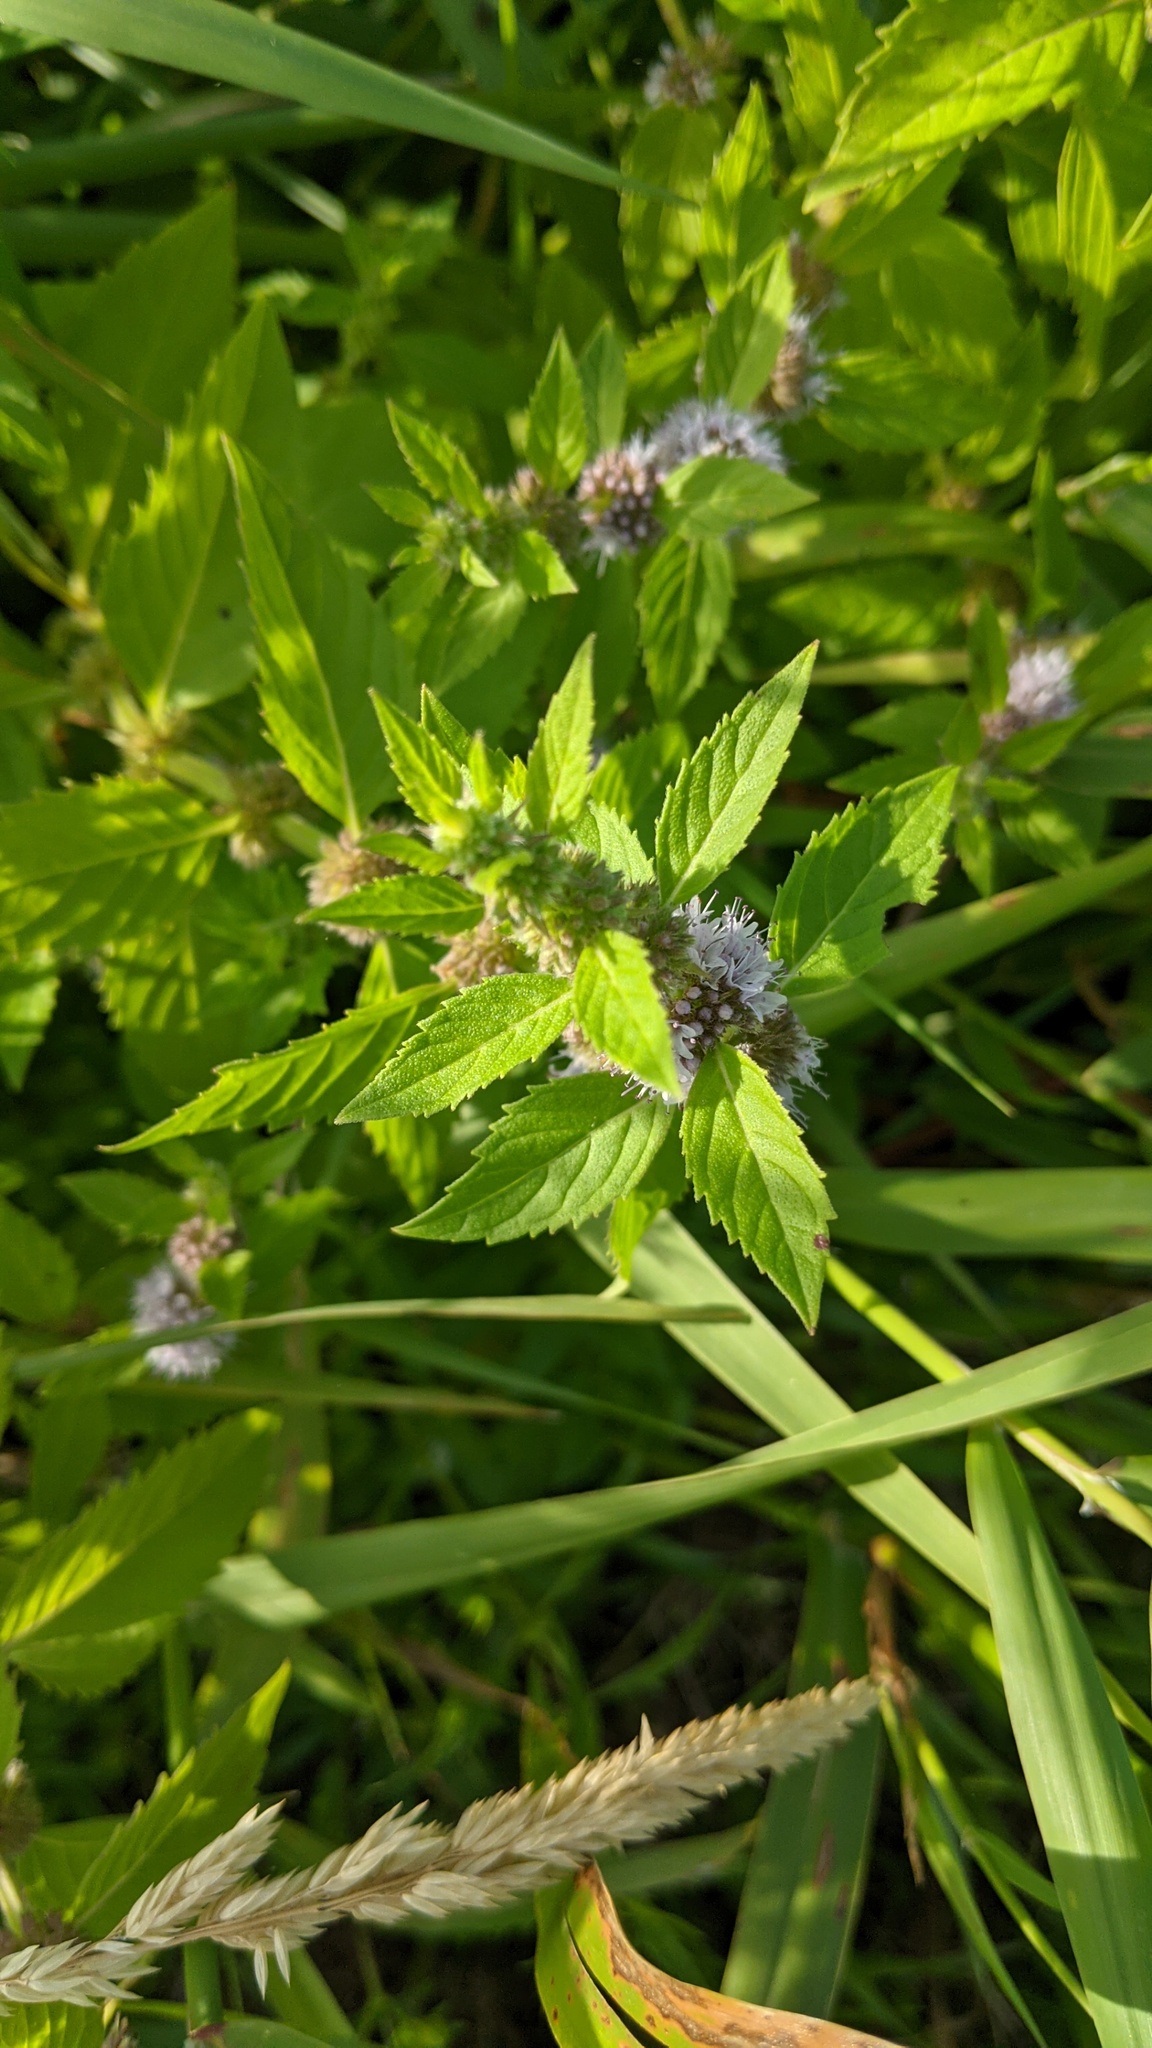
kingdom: Plantae
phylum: Tracheophyta
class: Magnoliopsida
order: Lamiales
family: Lamiaceae
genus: Mentha
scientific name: Mentha canadensis
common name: American corn mint
